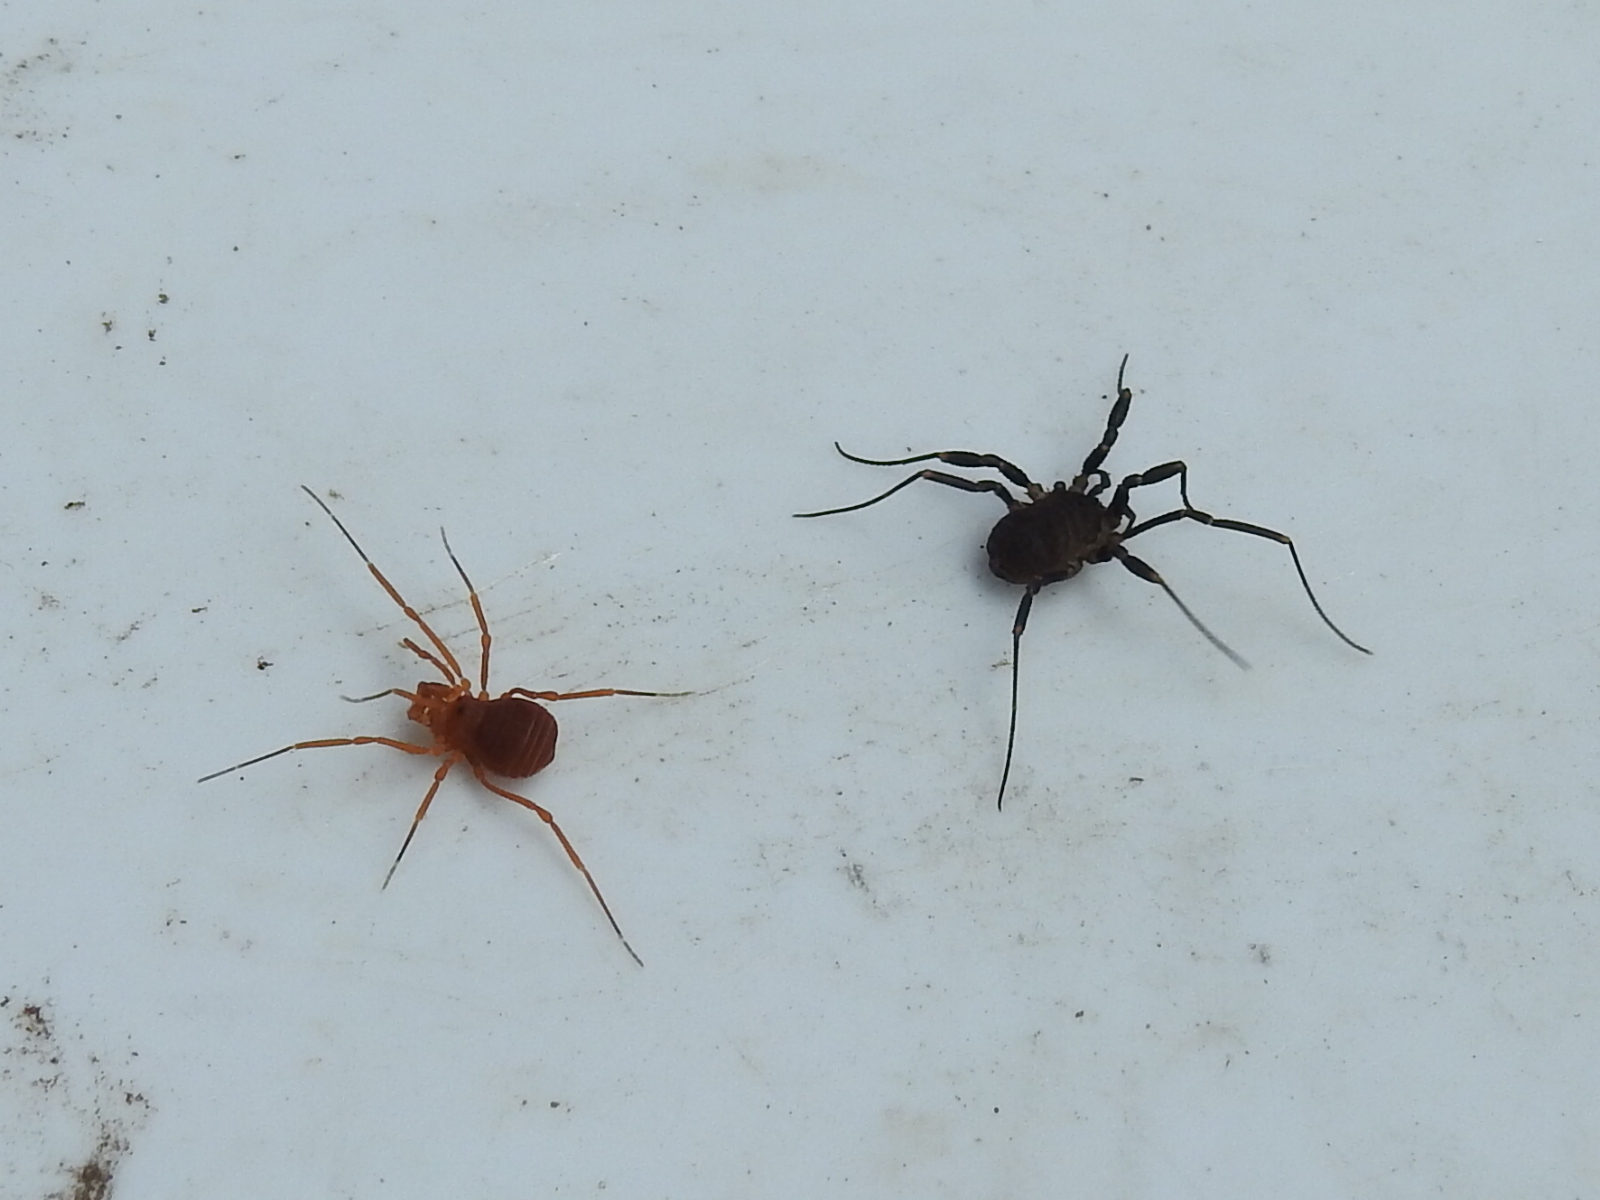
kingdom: Animalia
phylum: Arthropoda
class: Arachnida
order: Opiliones
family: Paranonychidae
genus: Sclerobunus
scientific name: Sclerobunus robustus
